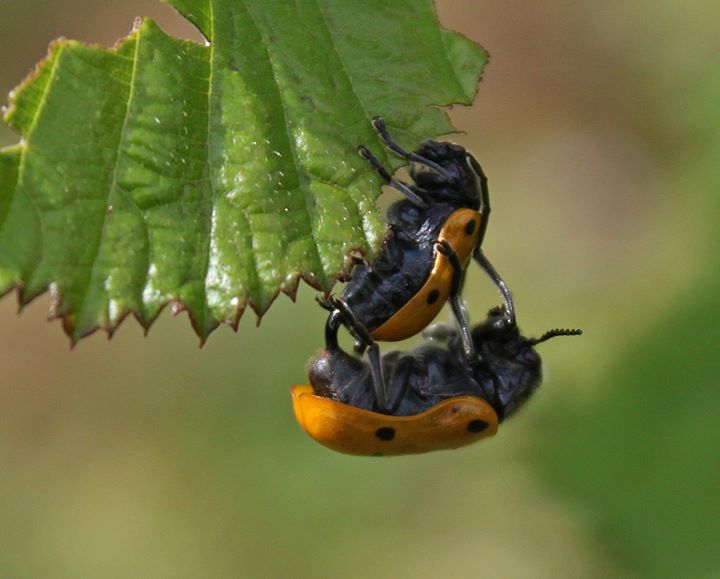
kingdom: Animalia
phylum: Arthropoda
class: Insecta
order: Coleoptera
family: Chrysomelidae
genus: Lachnaia
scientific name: Lachnaia sexpunctata
